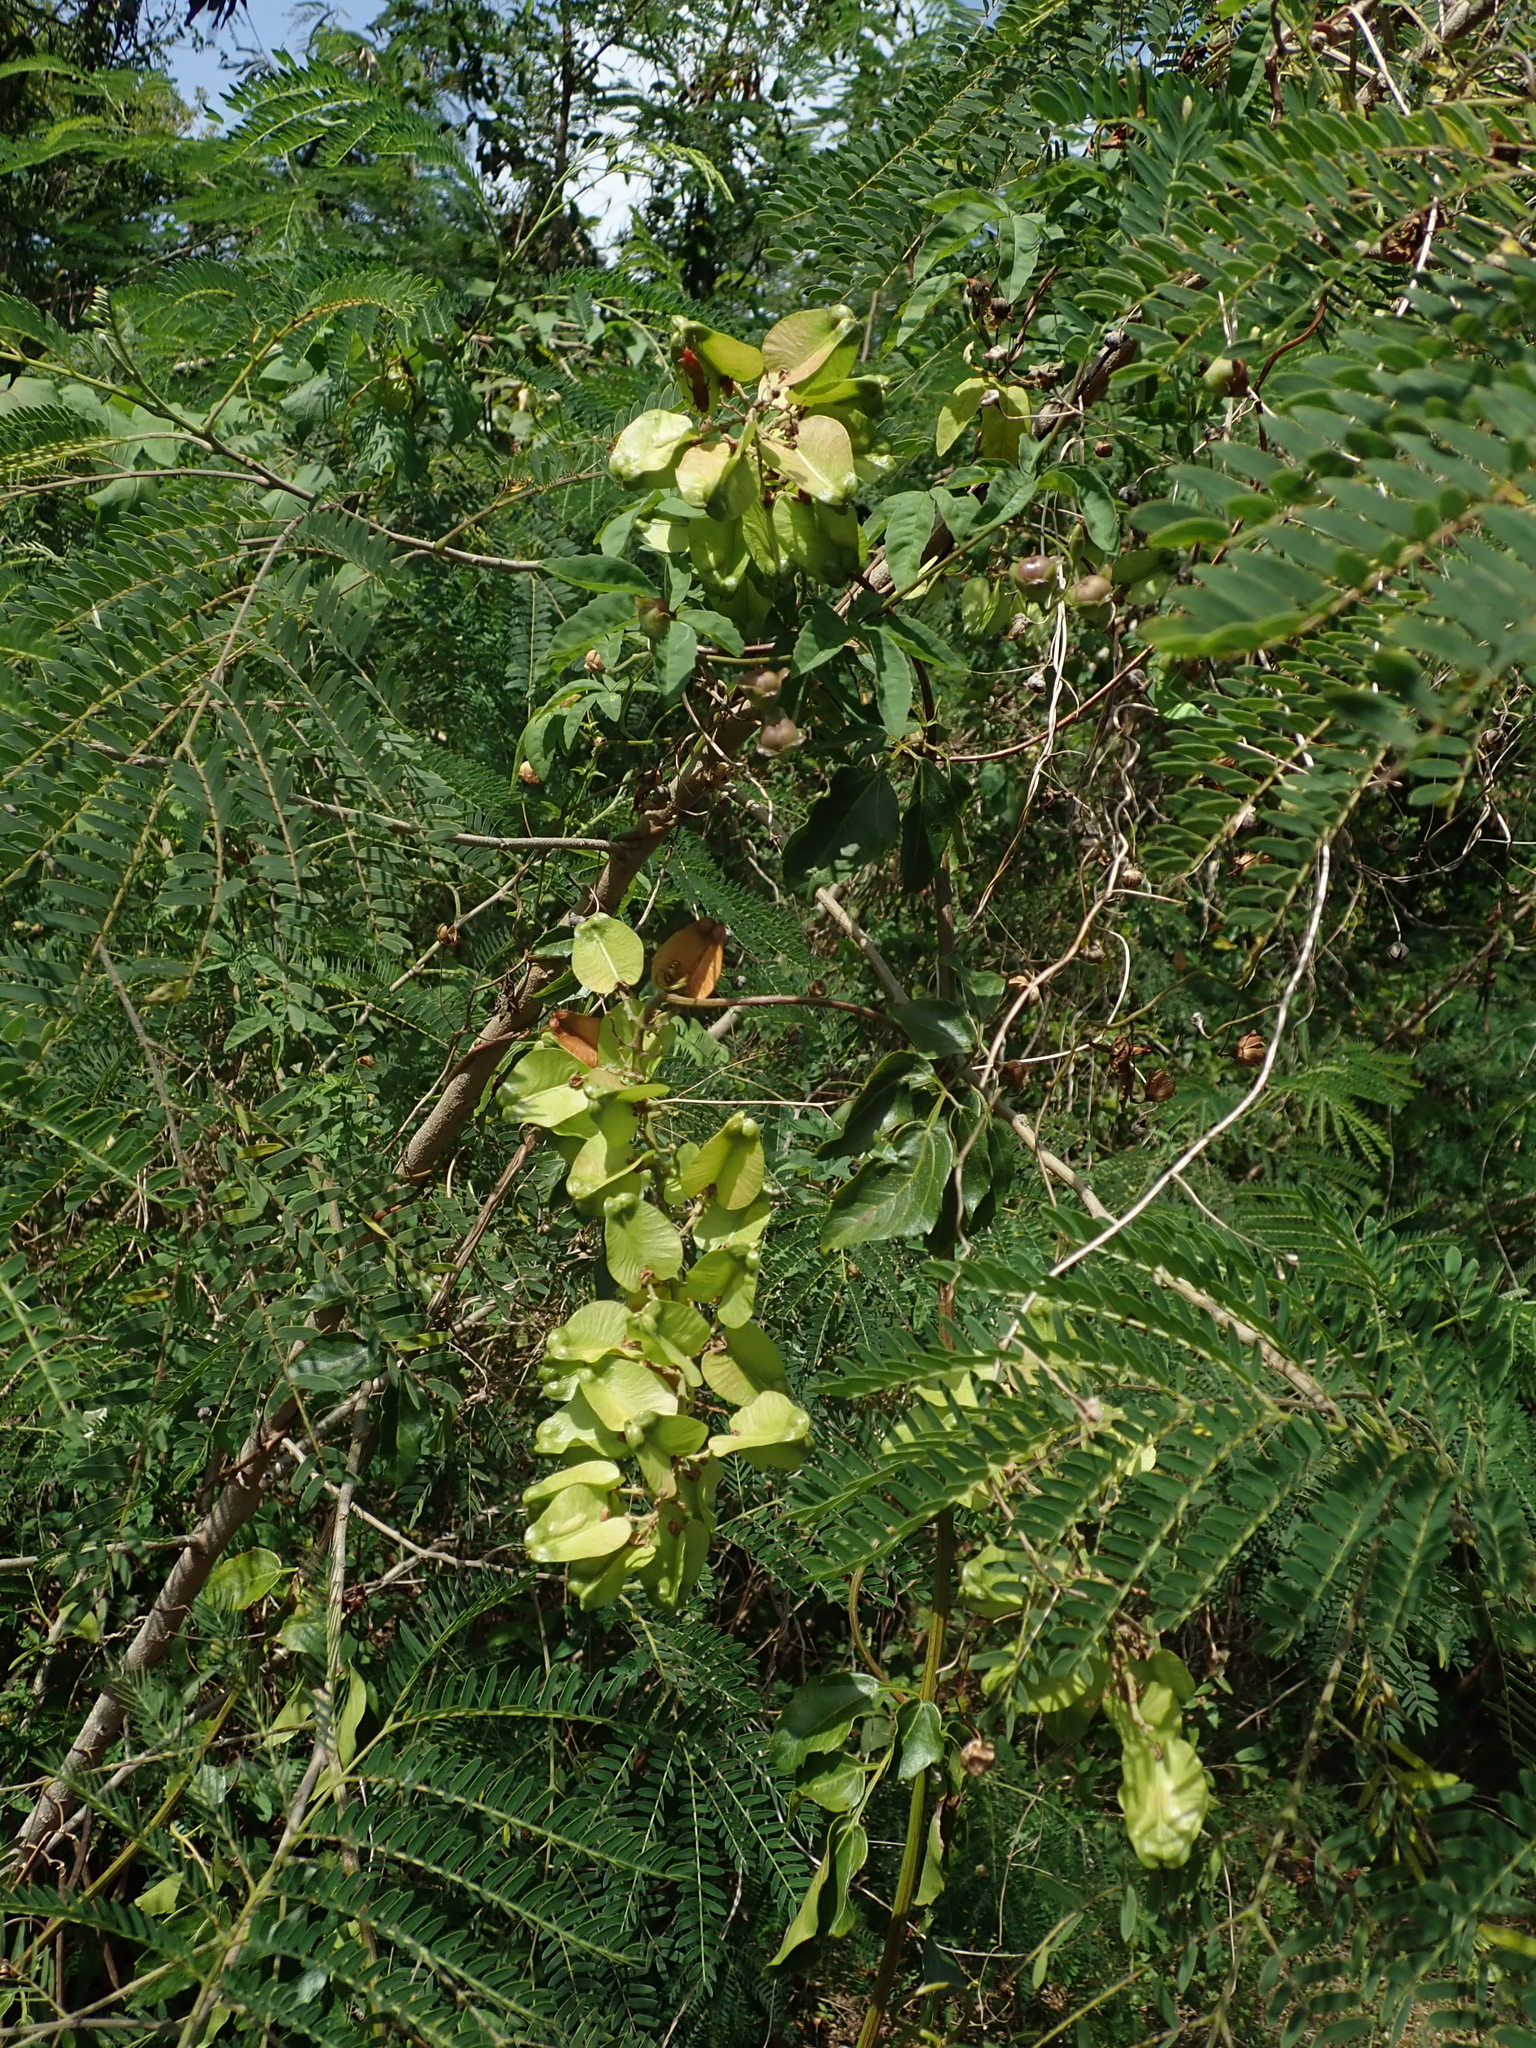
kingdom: Plantae
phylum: Tracheophyta
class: Magnoliopsida
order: Sapindales
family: Sapindaceae
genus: Serjania
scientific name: Serjania lucida
